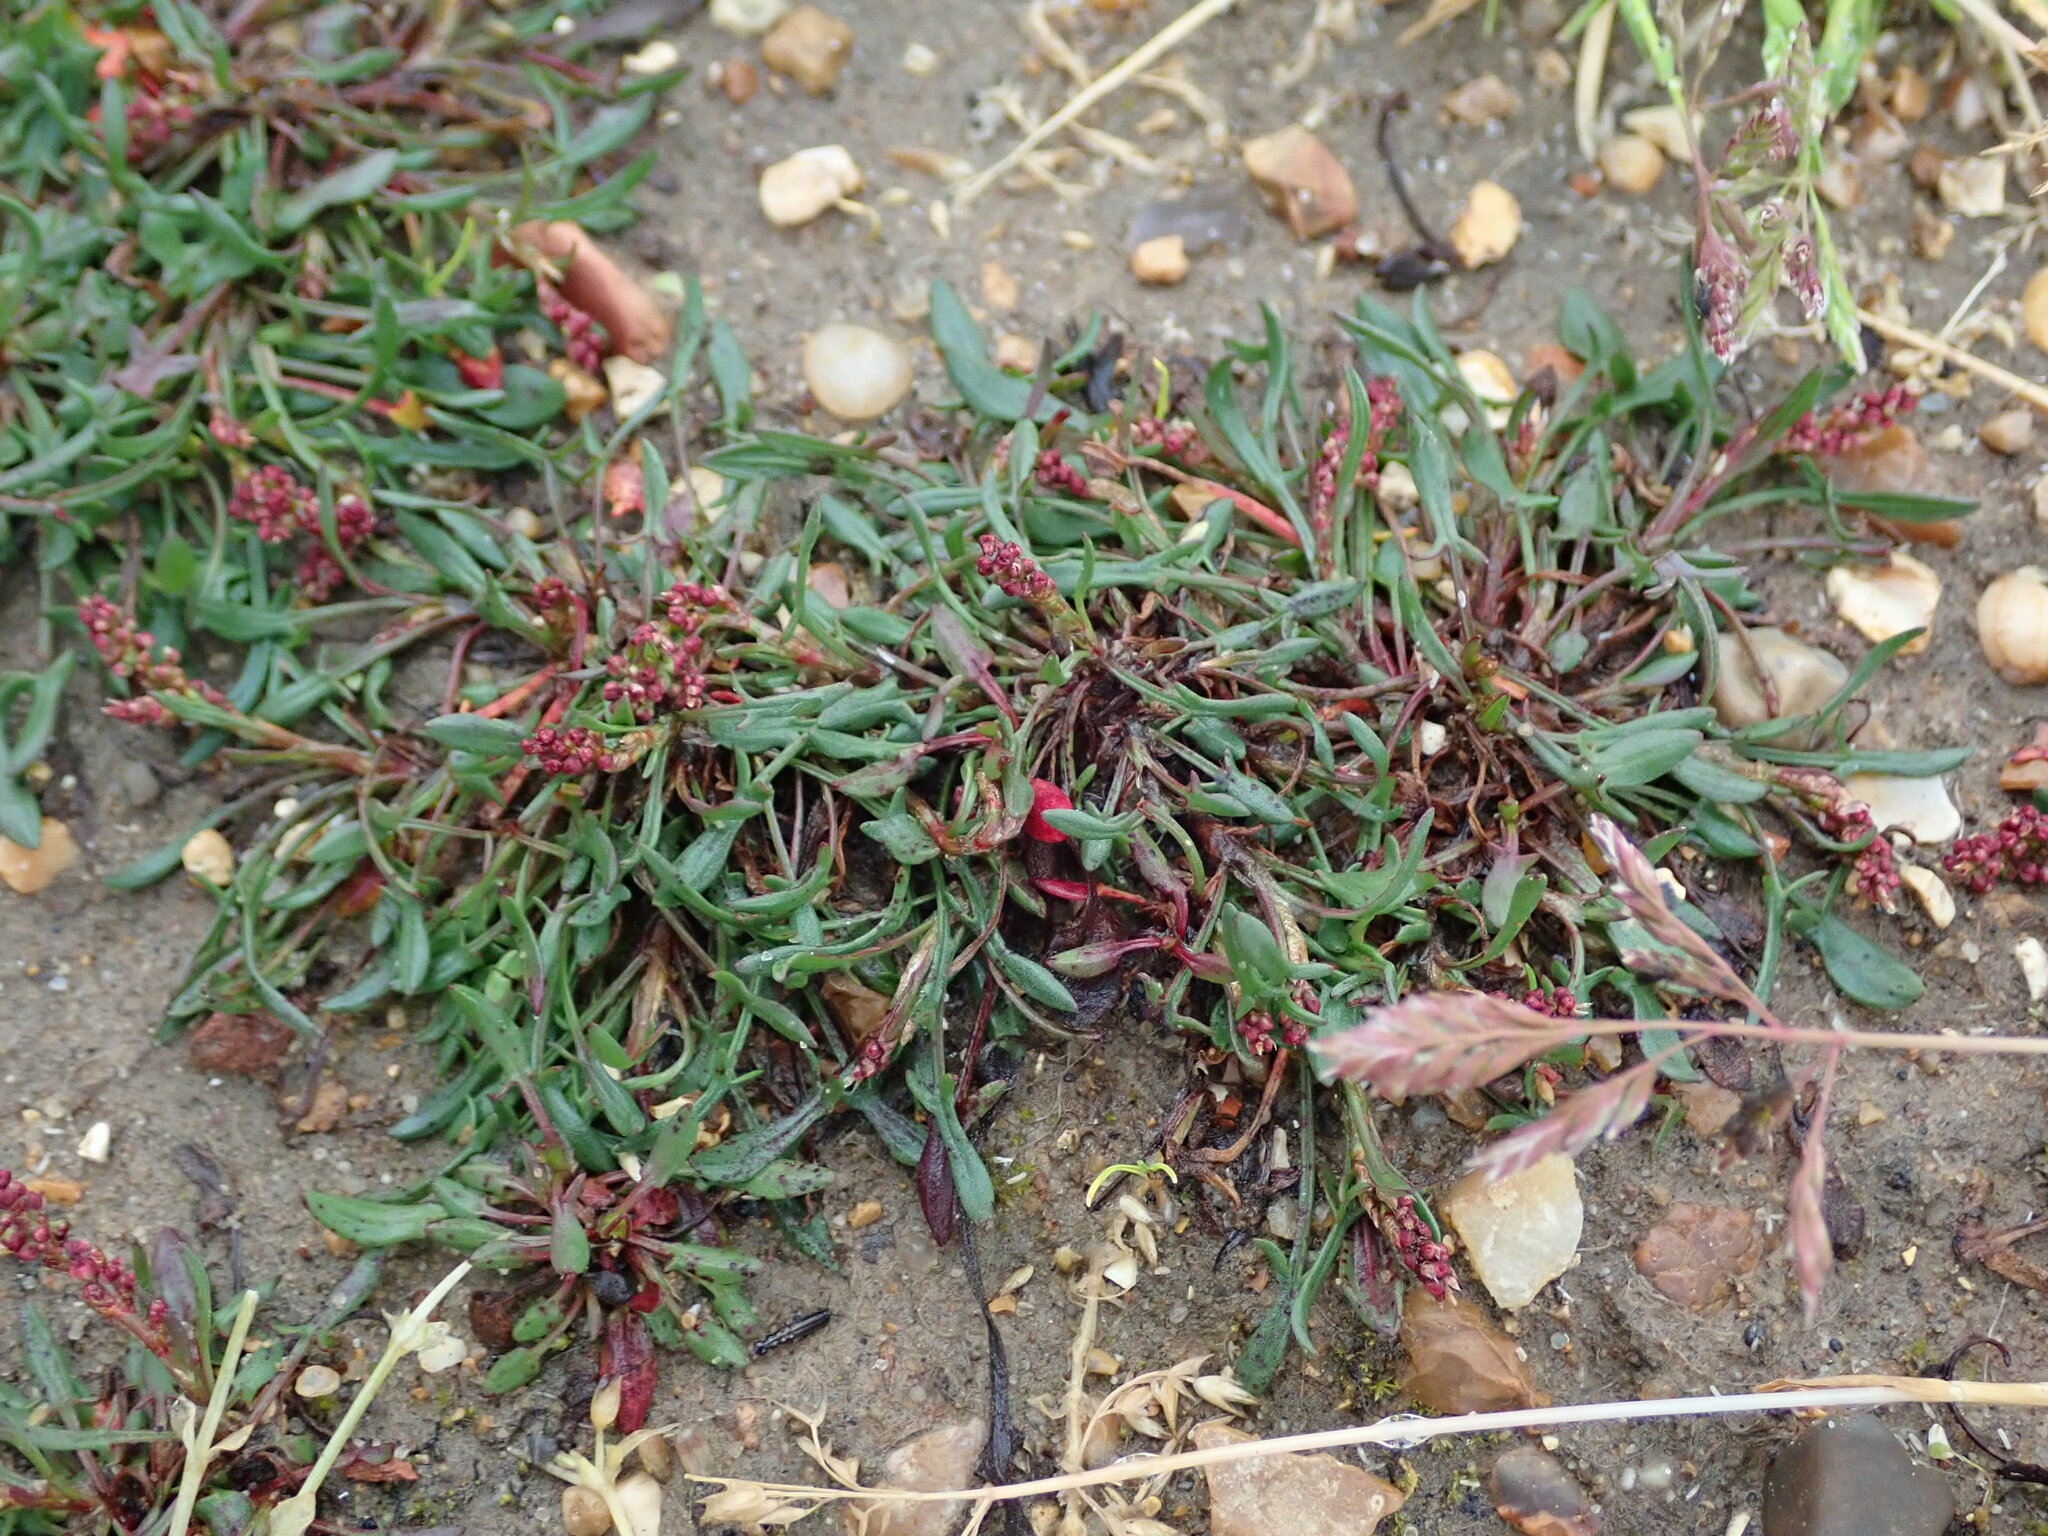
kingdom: Plantae
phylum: Tracheophyta
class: Magnoliopsida
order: Caryophyllales
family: Polygonaceae
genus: Rumex
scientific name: Rumex acetosella
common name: Common sheep sorrel
